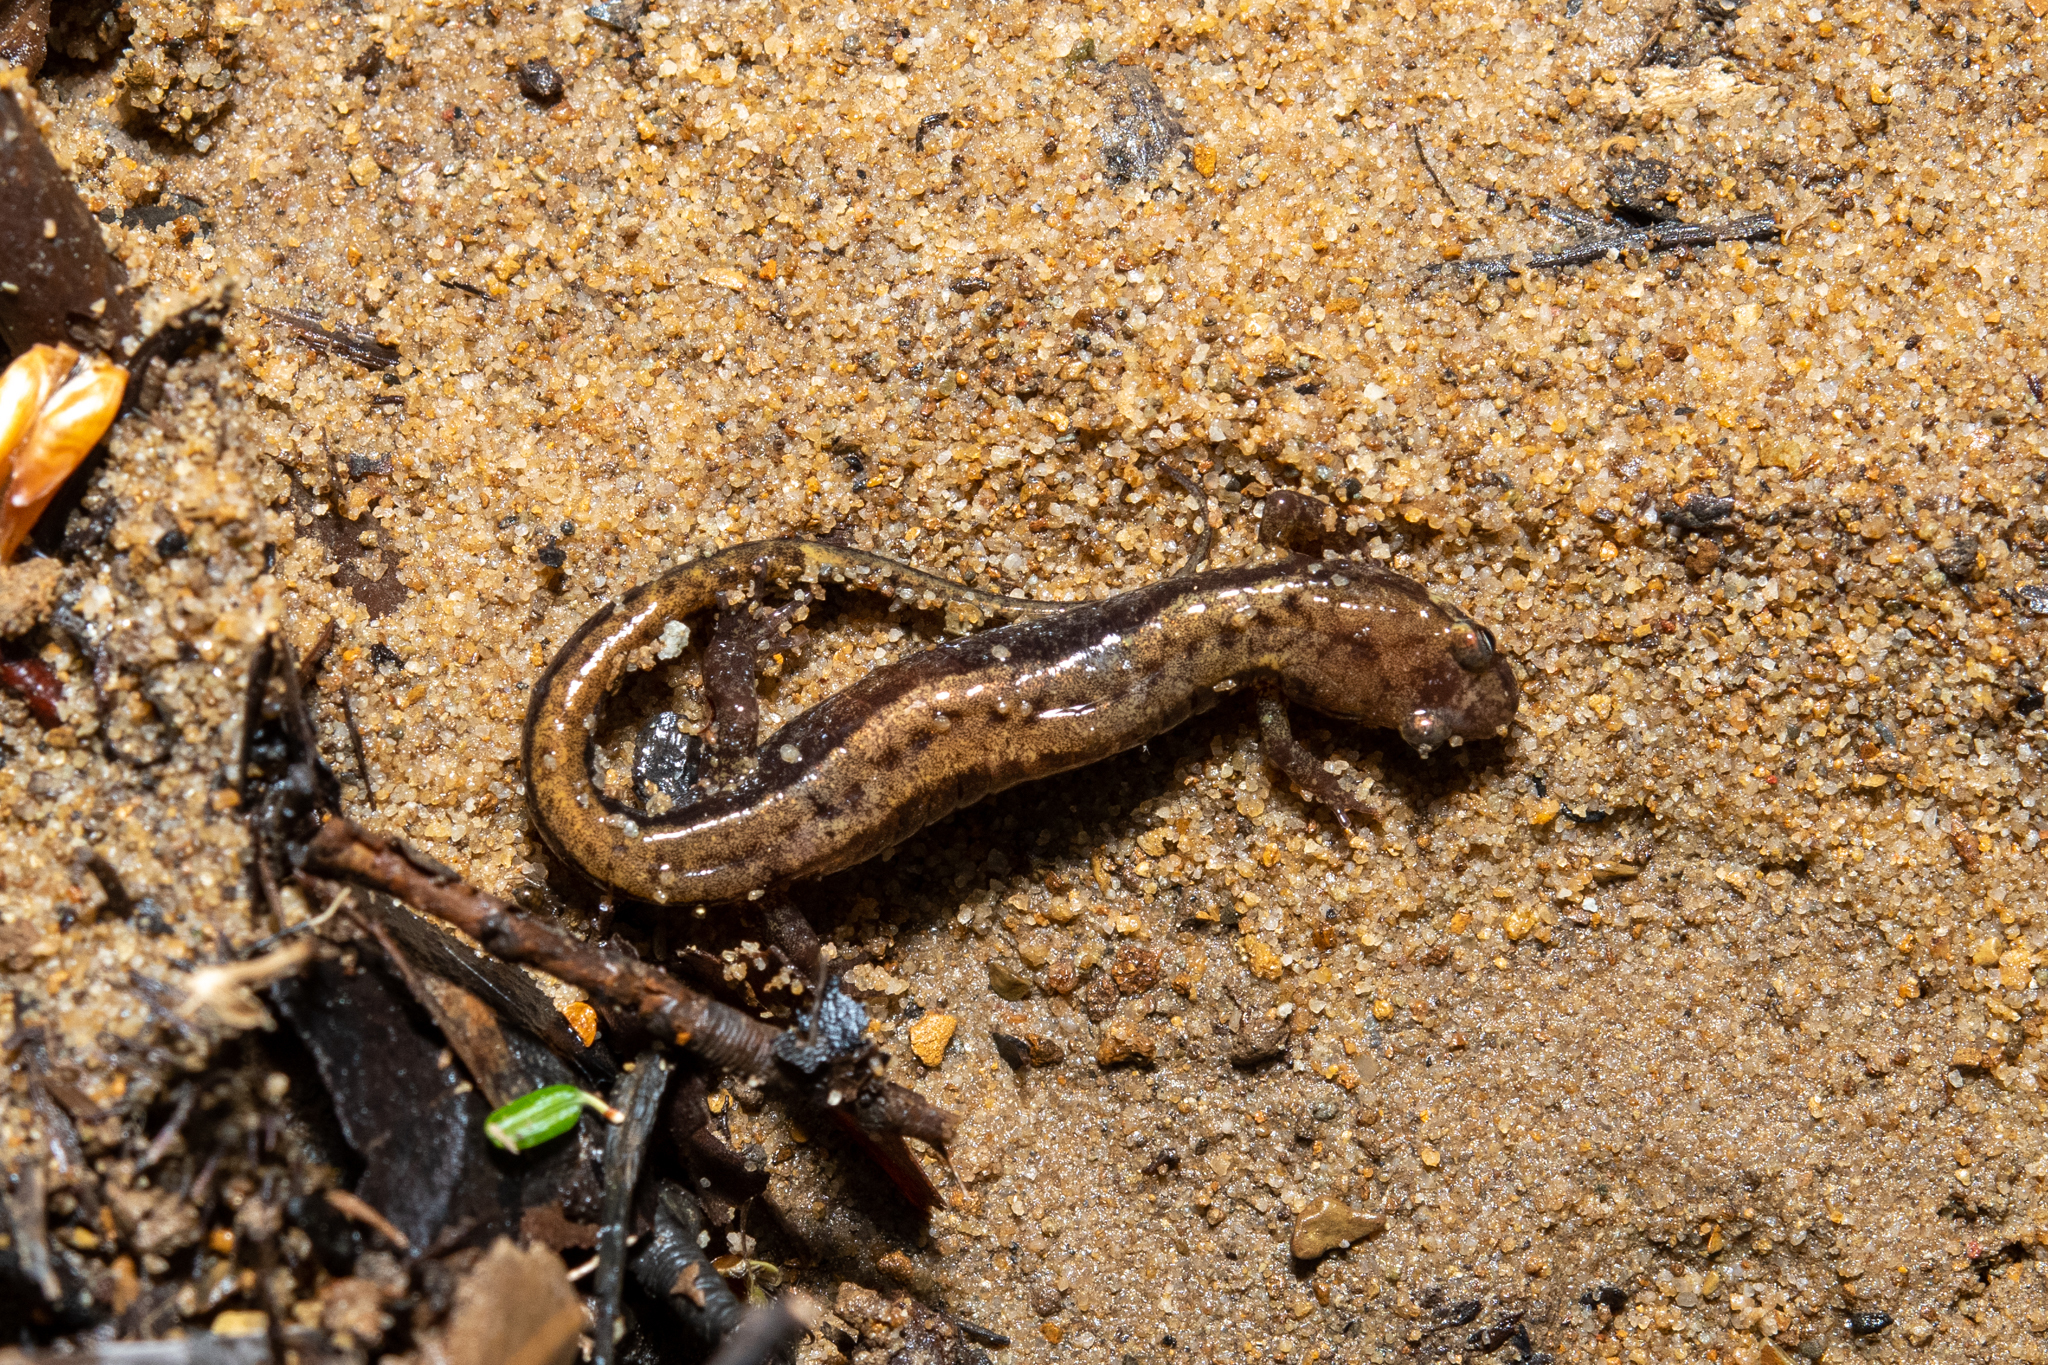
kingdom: Animalia
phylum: Chordata
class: Amphibia
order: Caudata
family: Plethodontidae
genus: Desmognathus
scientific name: Desmognathus ochrophaeus
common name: Allegheny mountain dusky salamander
